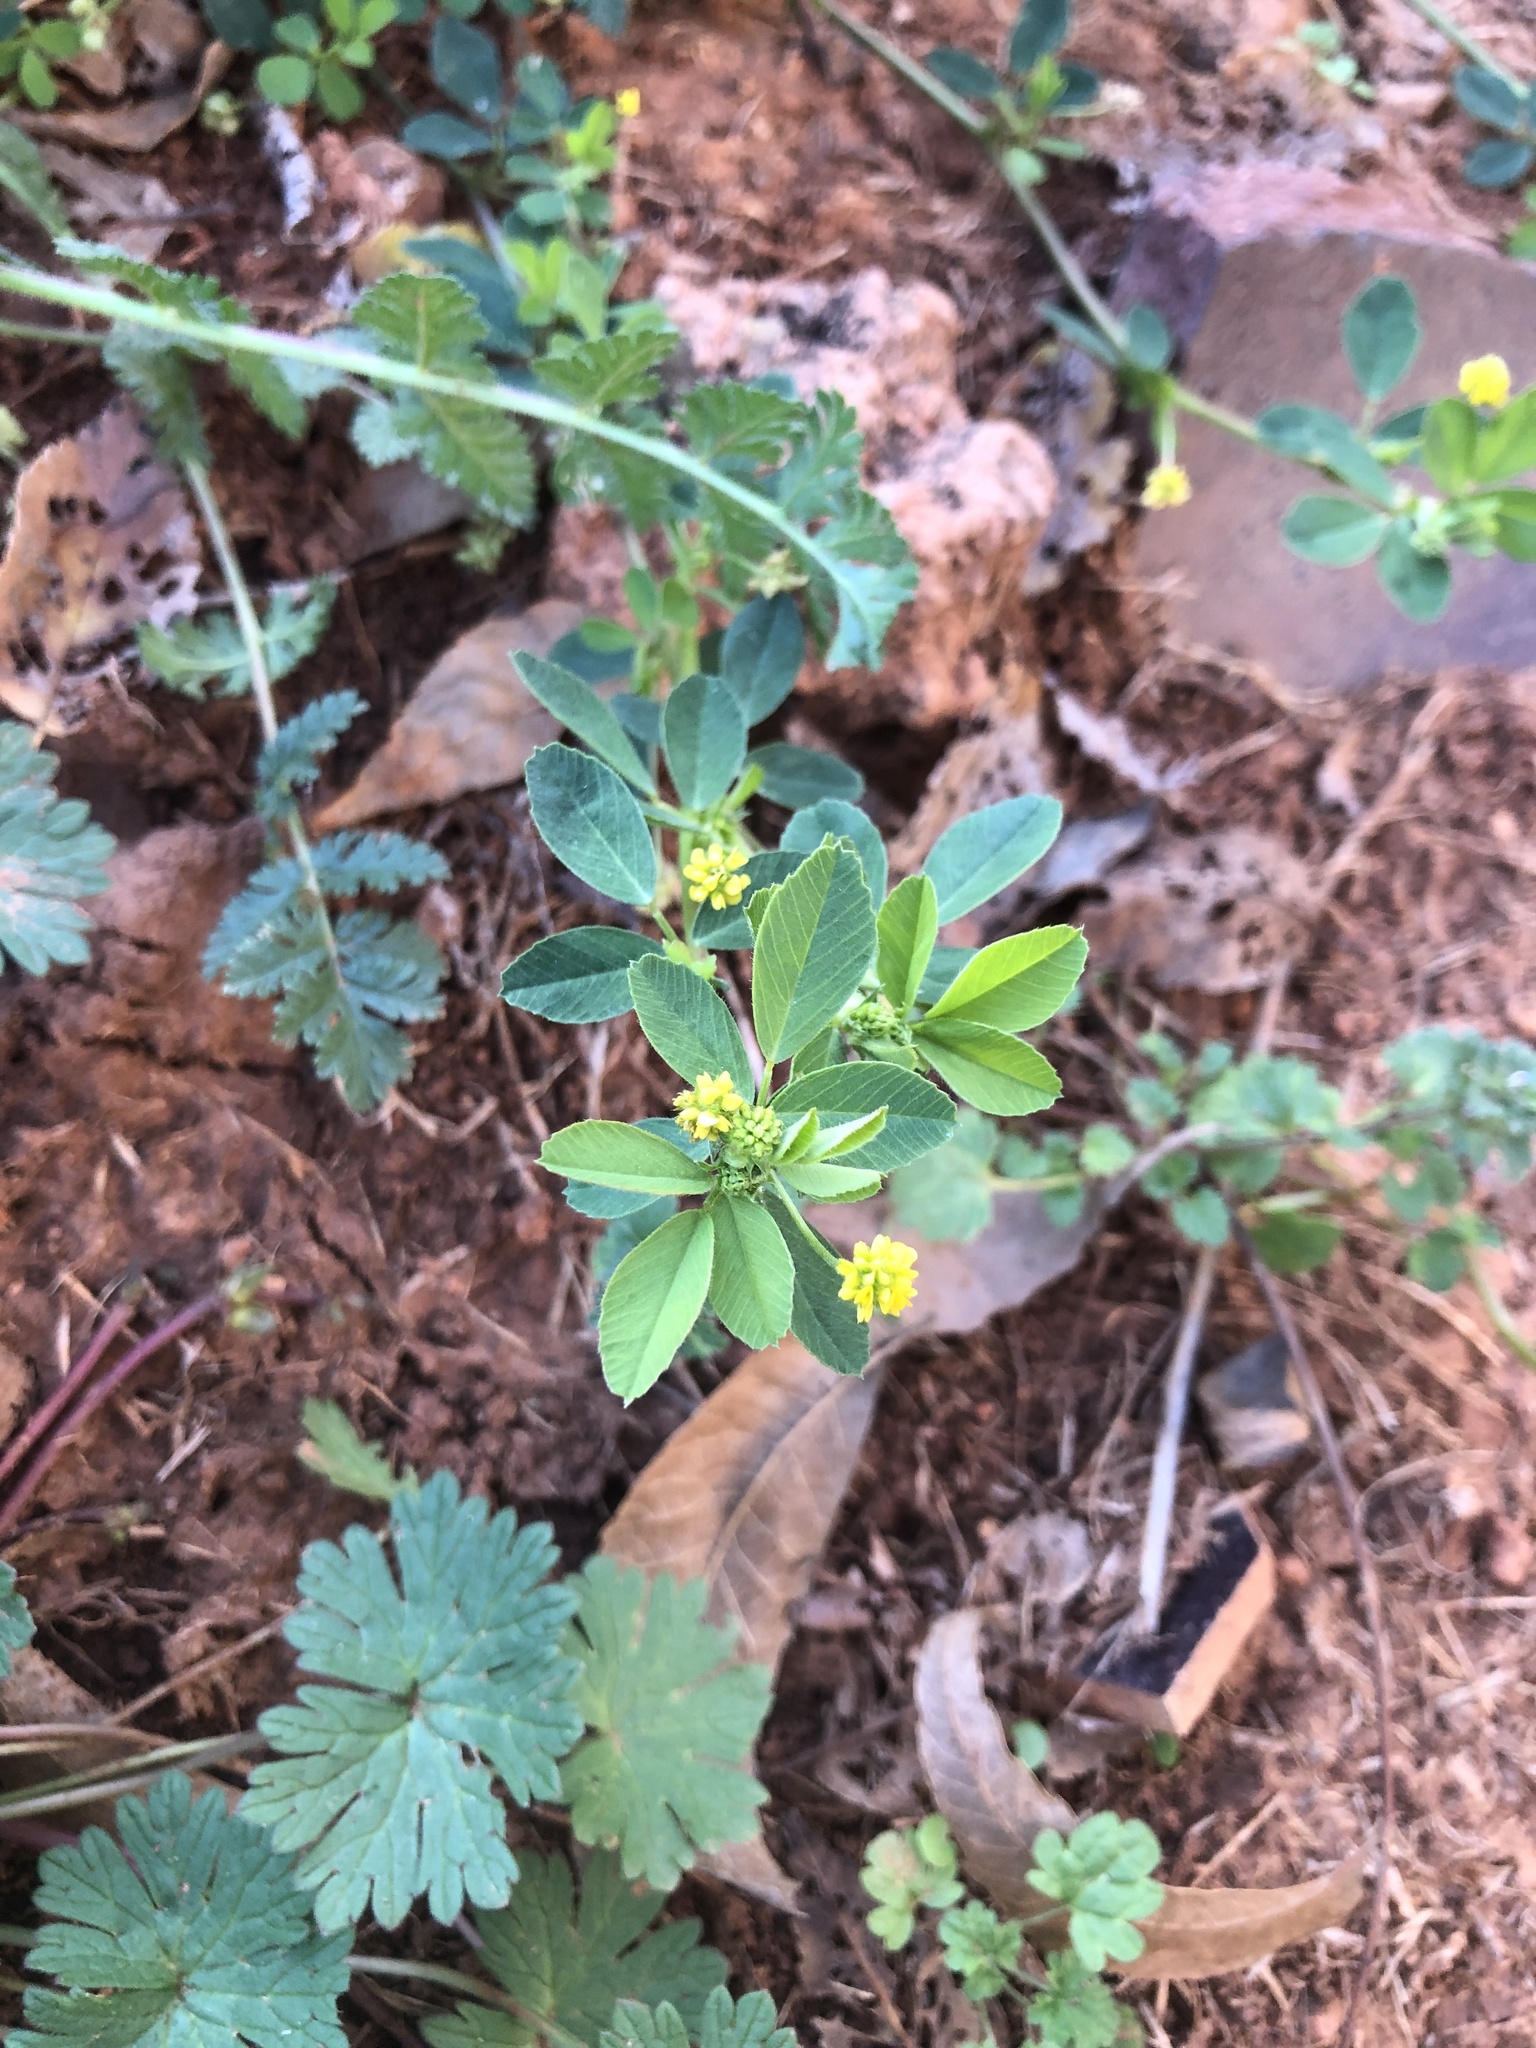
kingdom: Plantae
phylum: Tracheophyta
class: Magnoliopsida
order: Fabales
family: Fabaceae
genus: Medicago
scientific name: Medicago lupulina
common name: Black medick
